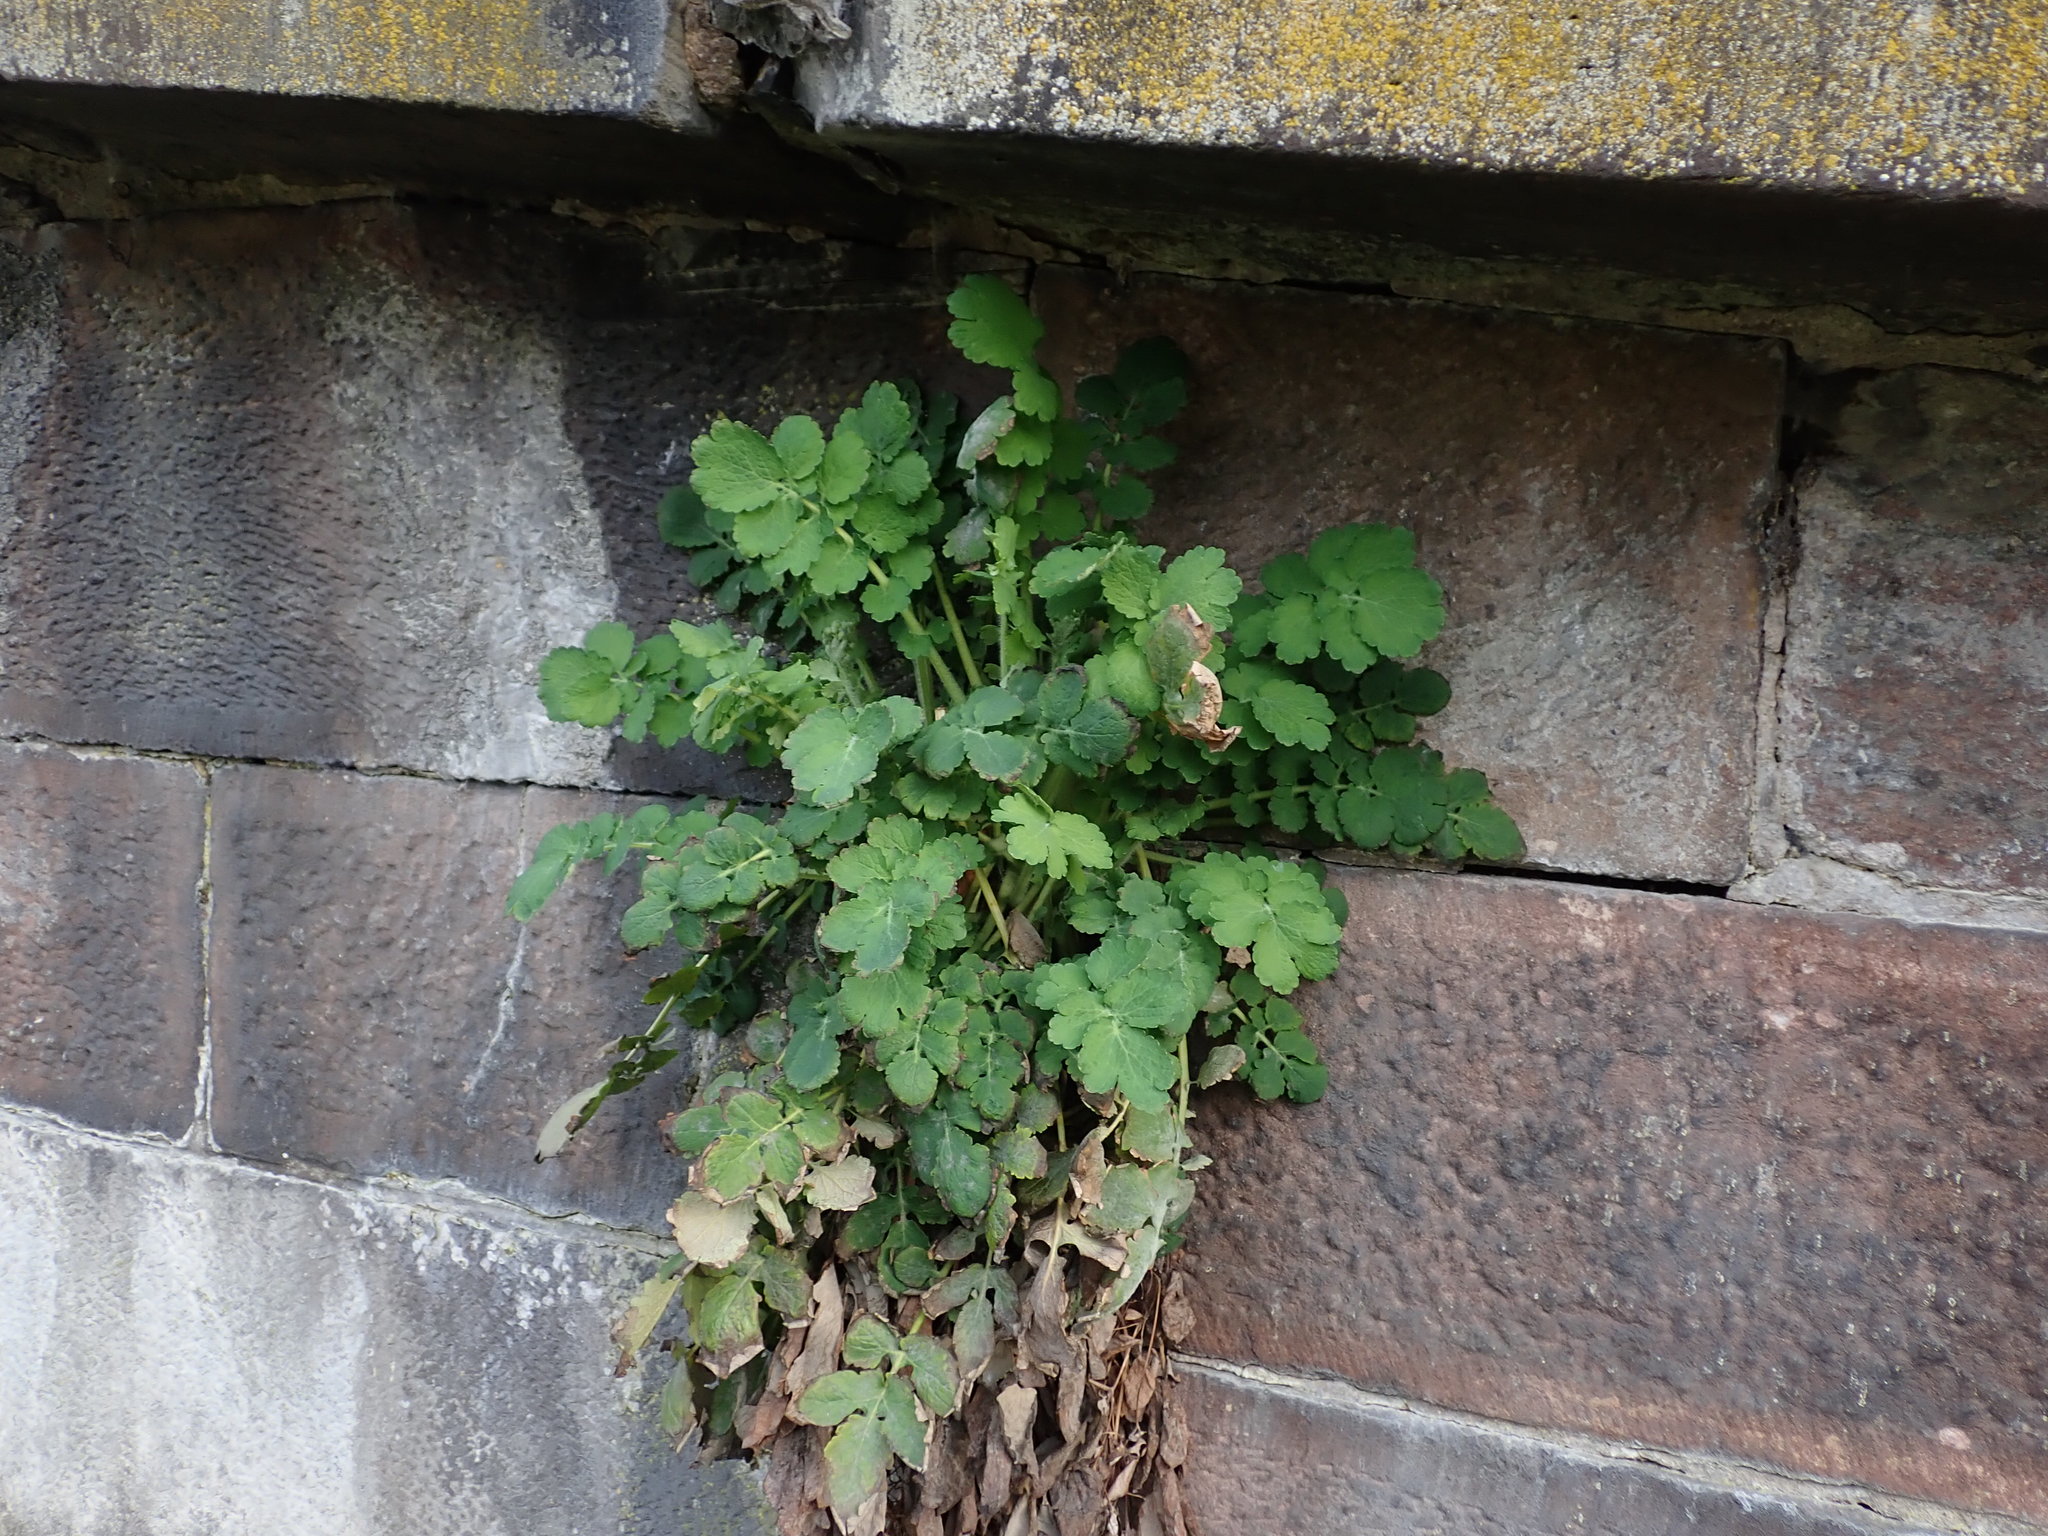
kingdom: Plantae
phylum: Tracheophyta
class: Magnoliopsida
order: Ranunculales
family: Papaveraceae
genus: Chelidonium
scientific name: Chelidonium majus
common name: Greater celandine
